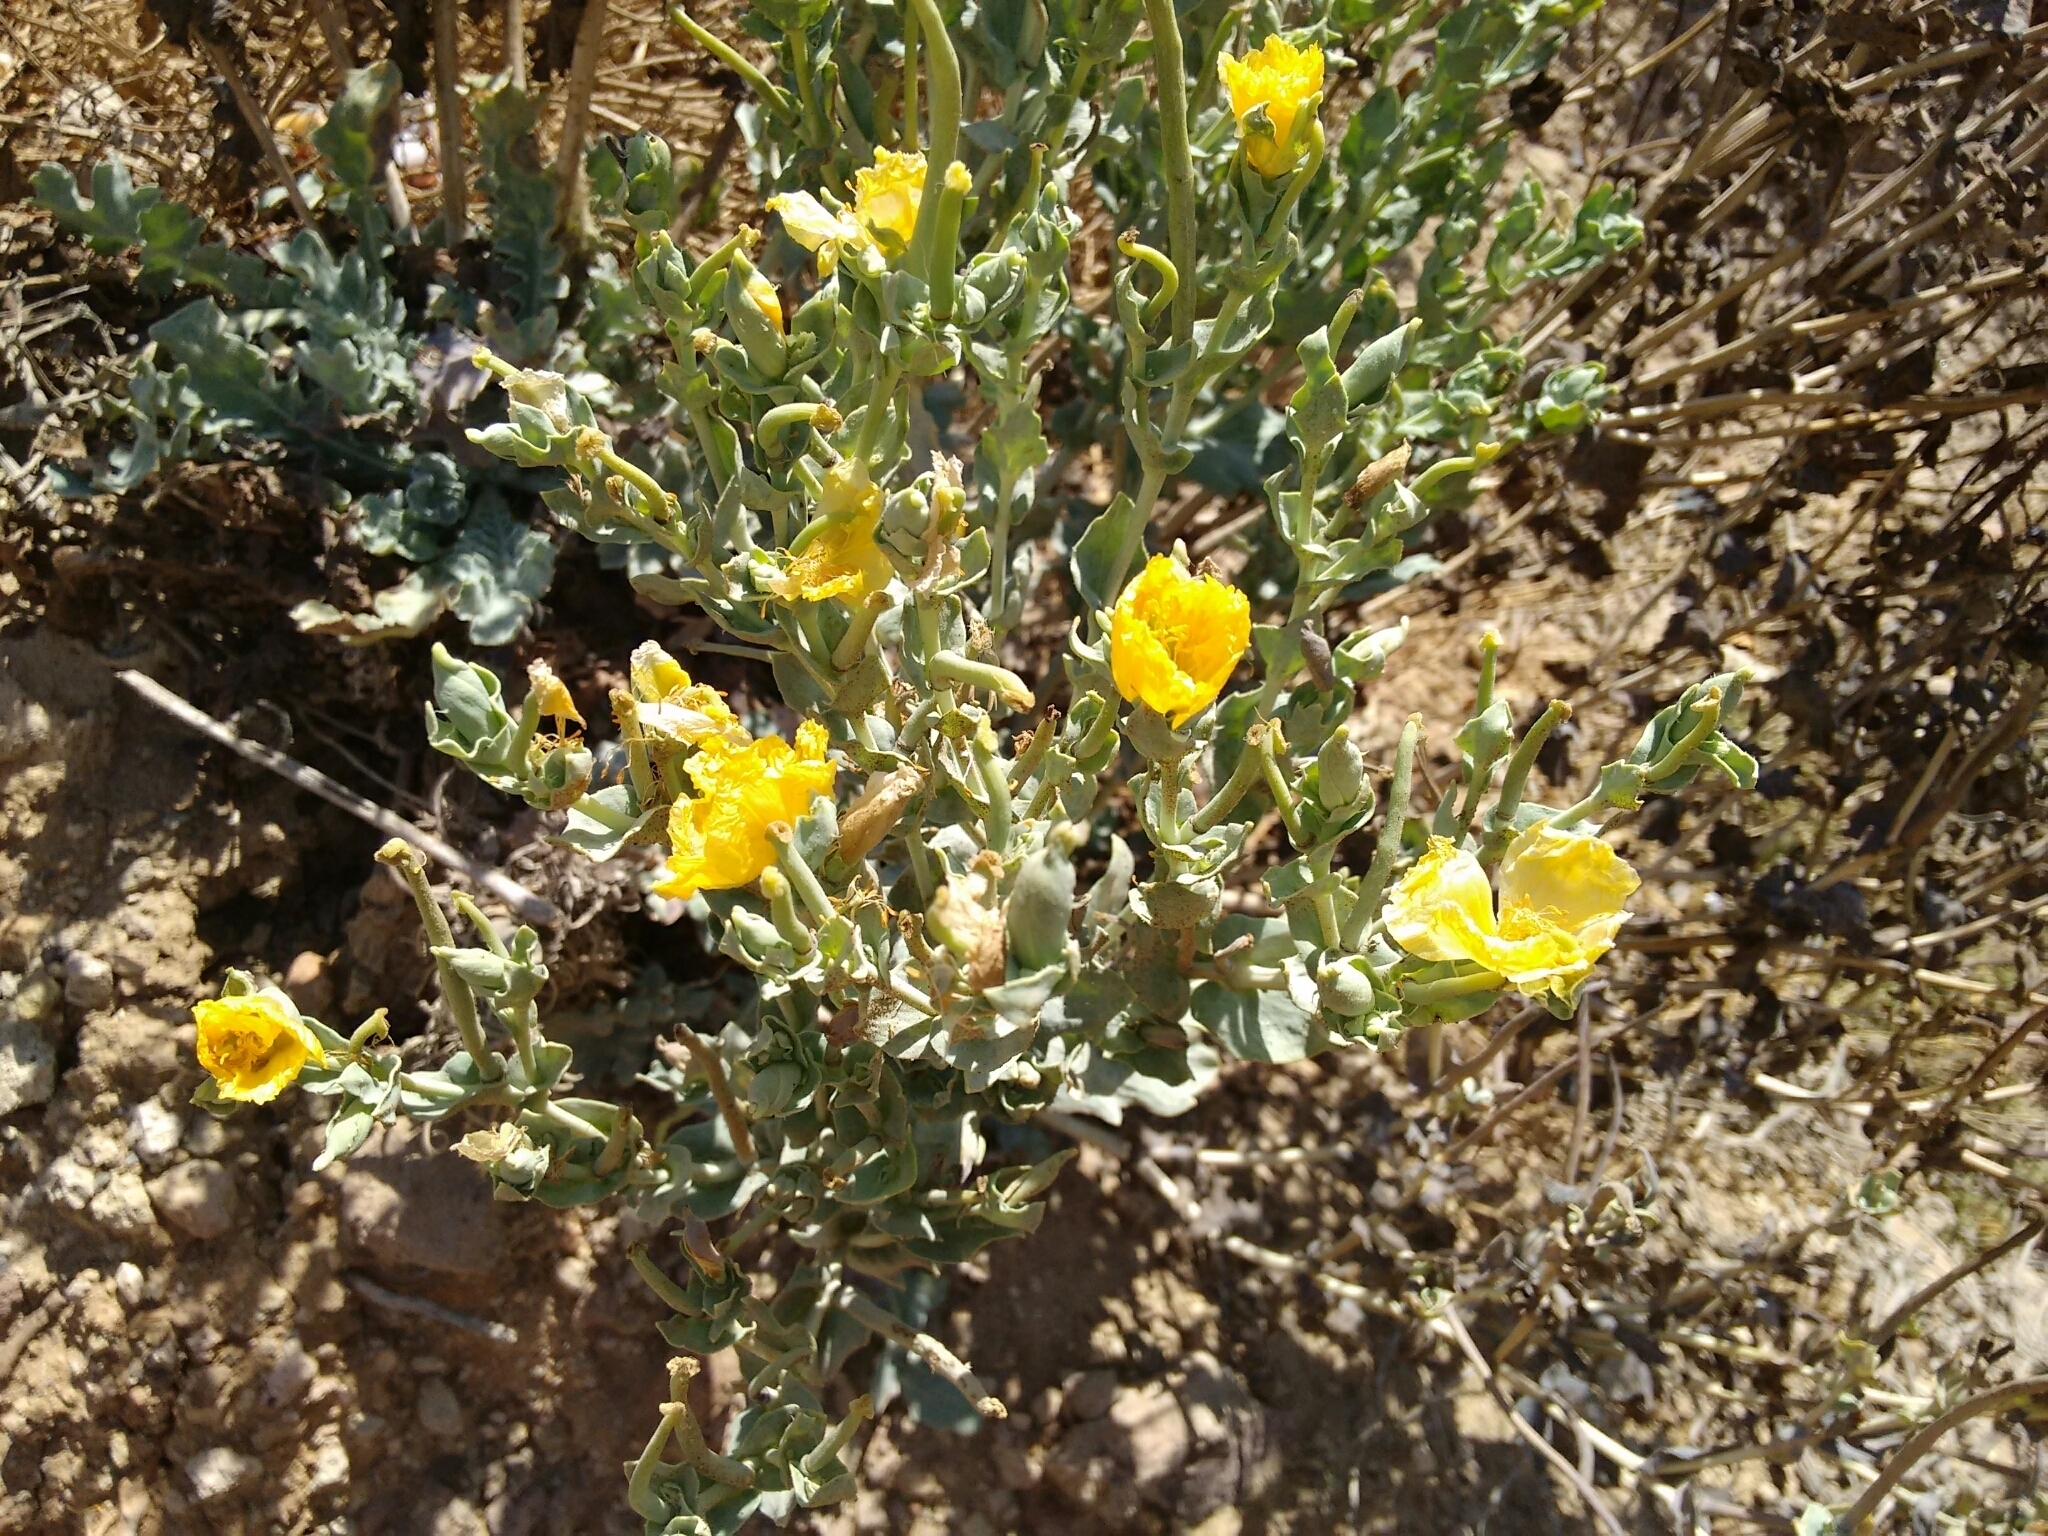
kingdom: Plantae
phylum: Tracheophyta
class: Magnoliopsida
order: Ranunculales
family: Papaveraceae
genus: Glaucium
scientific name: Glaucium flavum
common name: Yellow horned-poppy
